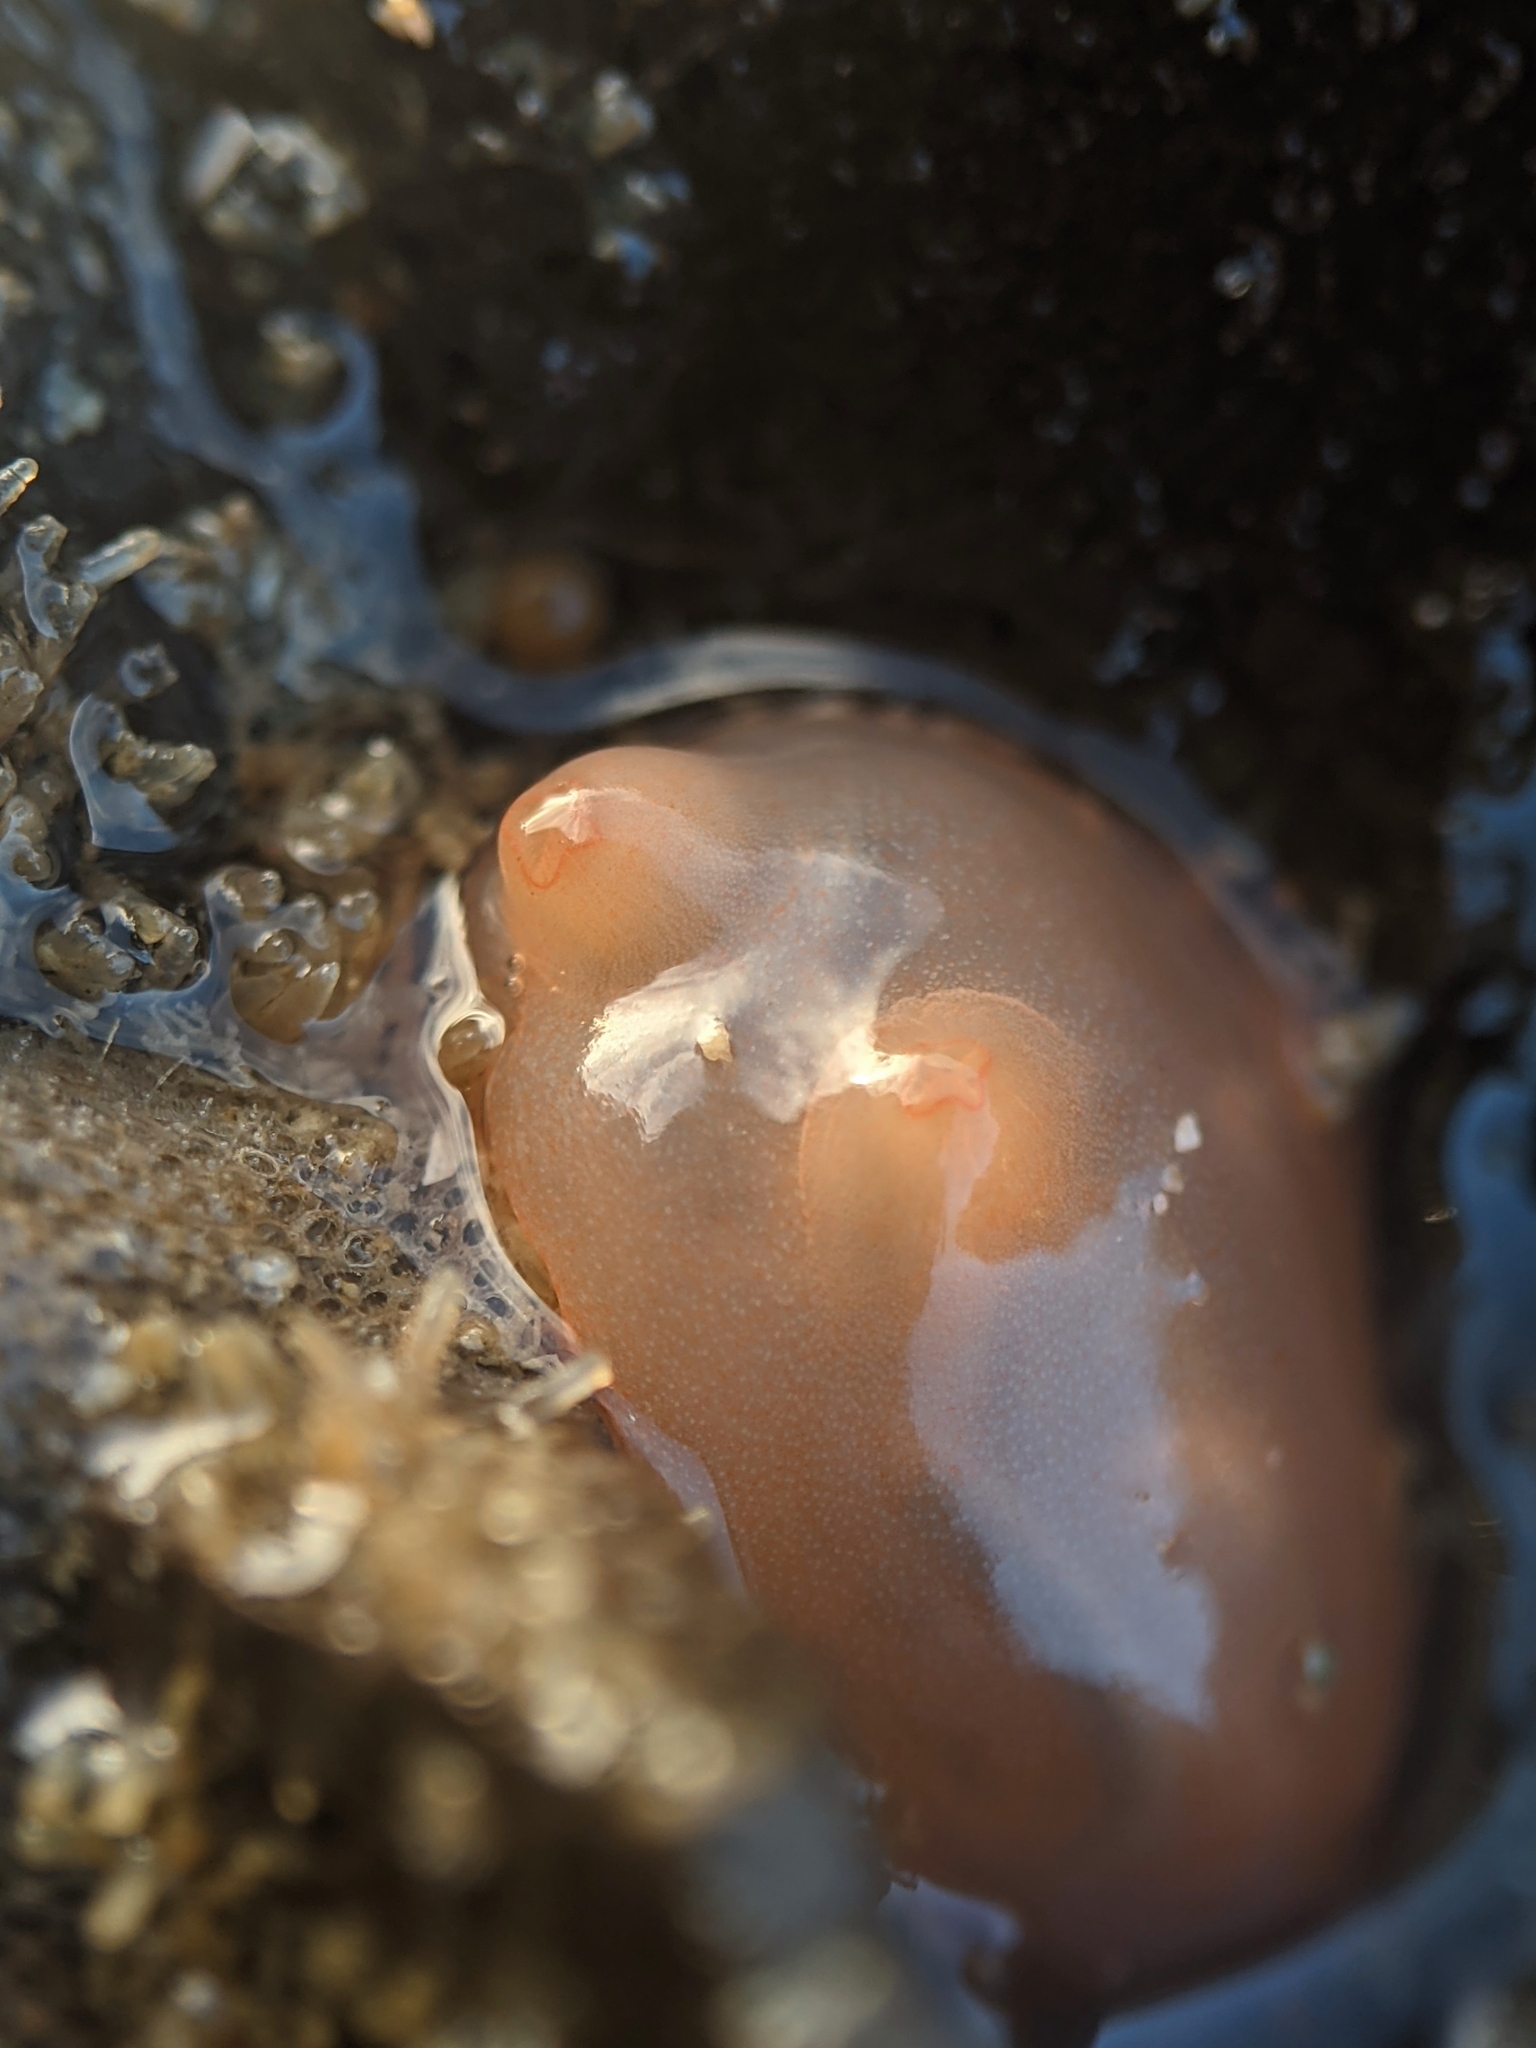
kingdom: Animalia
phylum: Chordata
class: Ascidiacea
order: Stolidobranchia
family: Styelidae
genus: Cnemidocarpa
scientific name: Cnemidocarpa finmarkiensis
